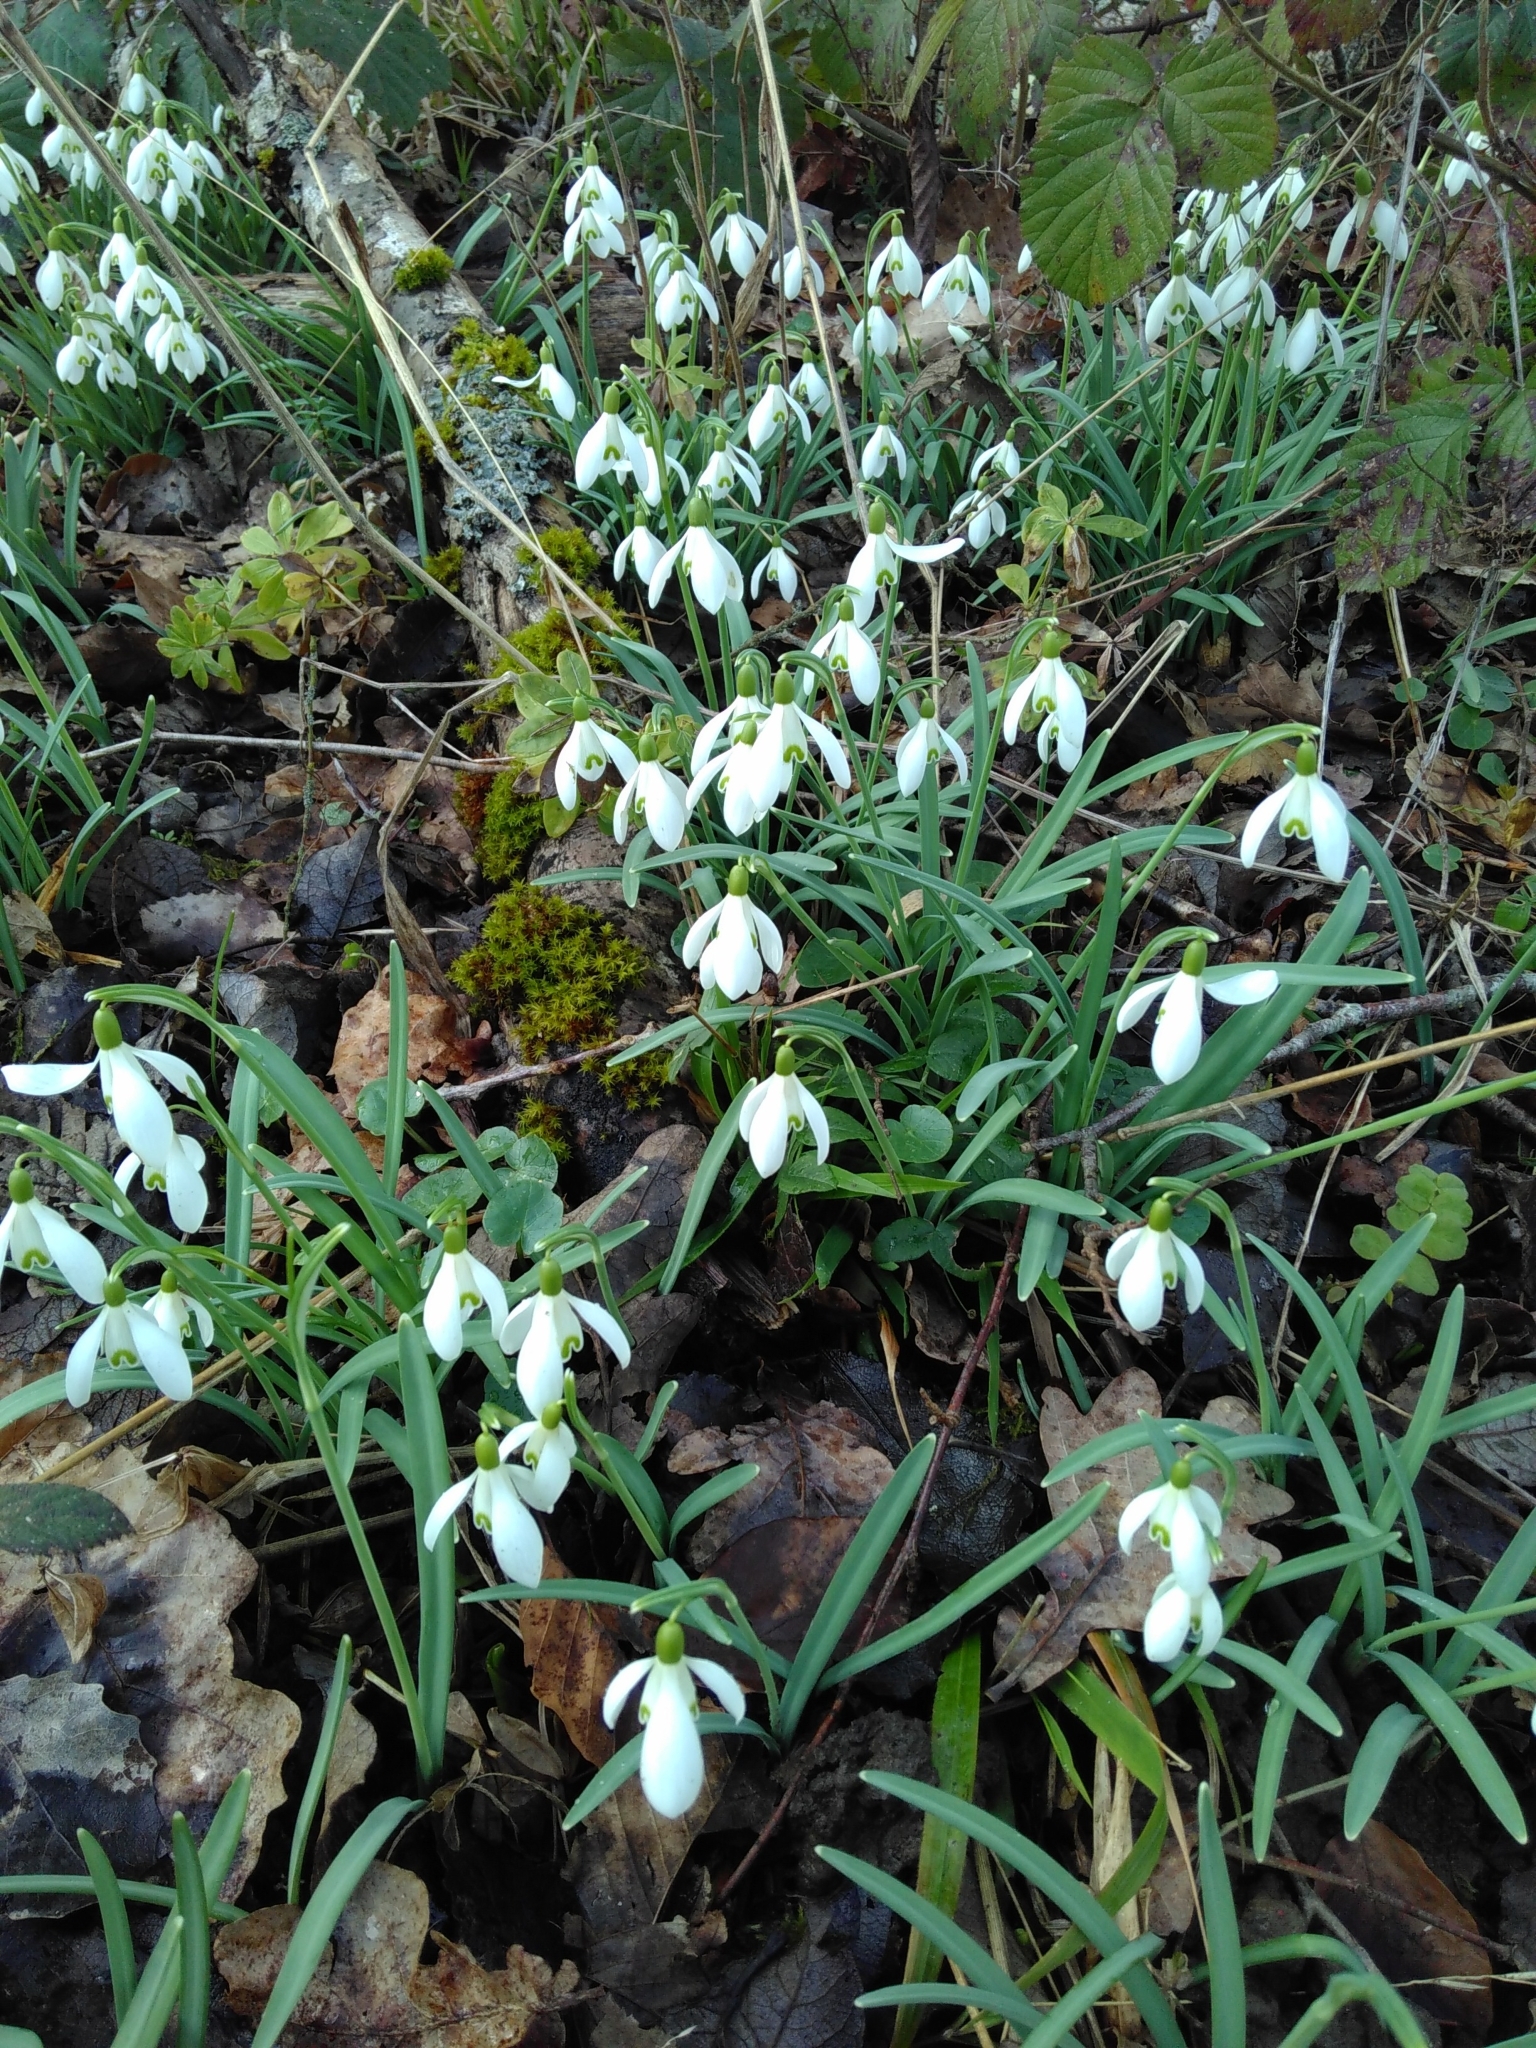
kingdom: Plantae
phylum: Tracheophyta
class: Liliopsida
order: Asparagales
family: Amaryllidaceae
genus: Galanthus
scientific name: Galanthus nivalis
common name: Snowdrop
